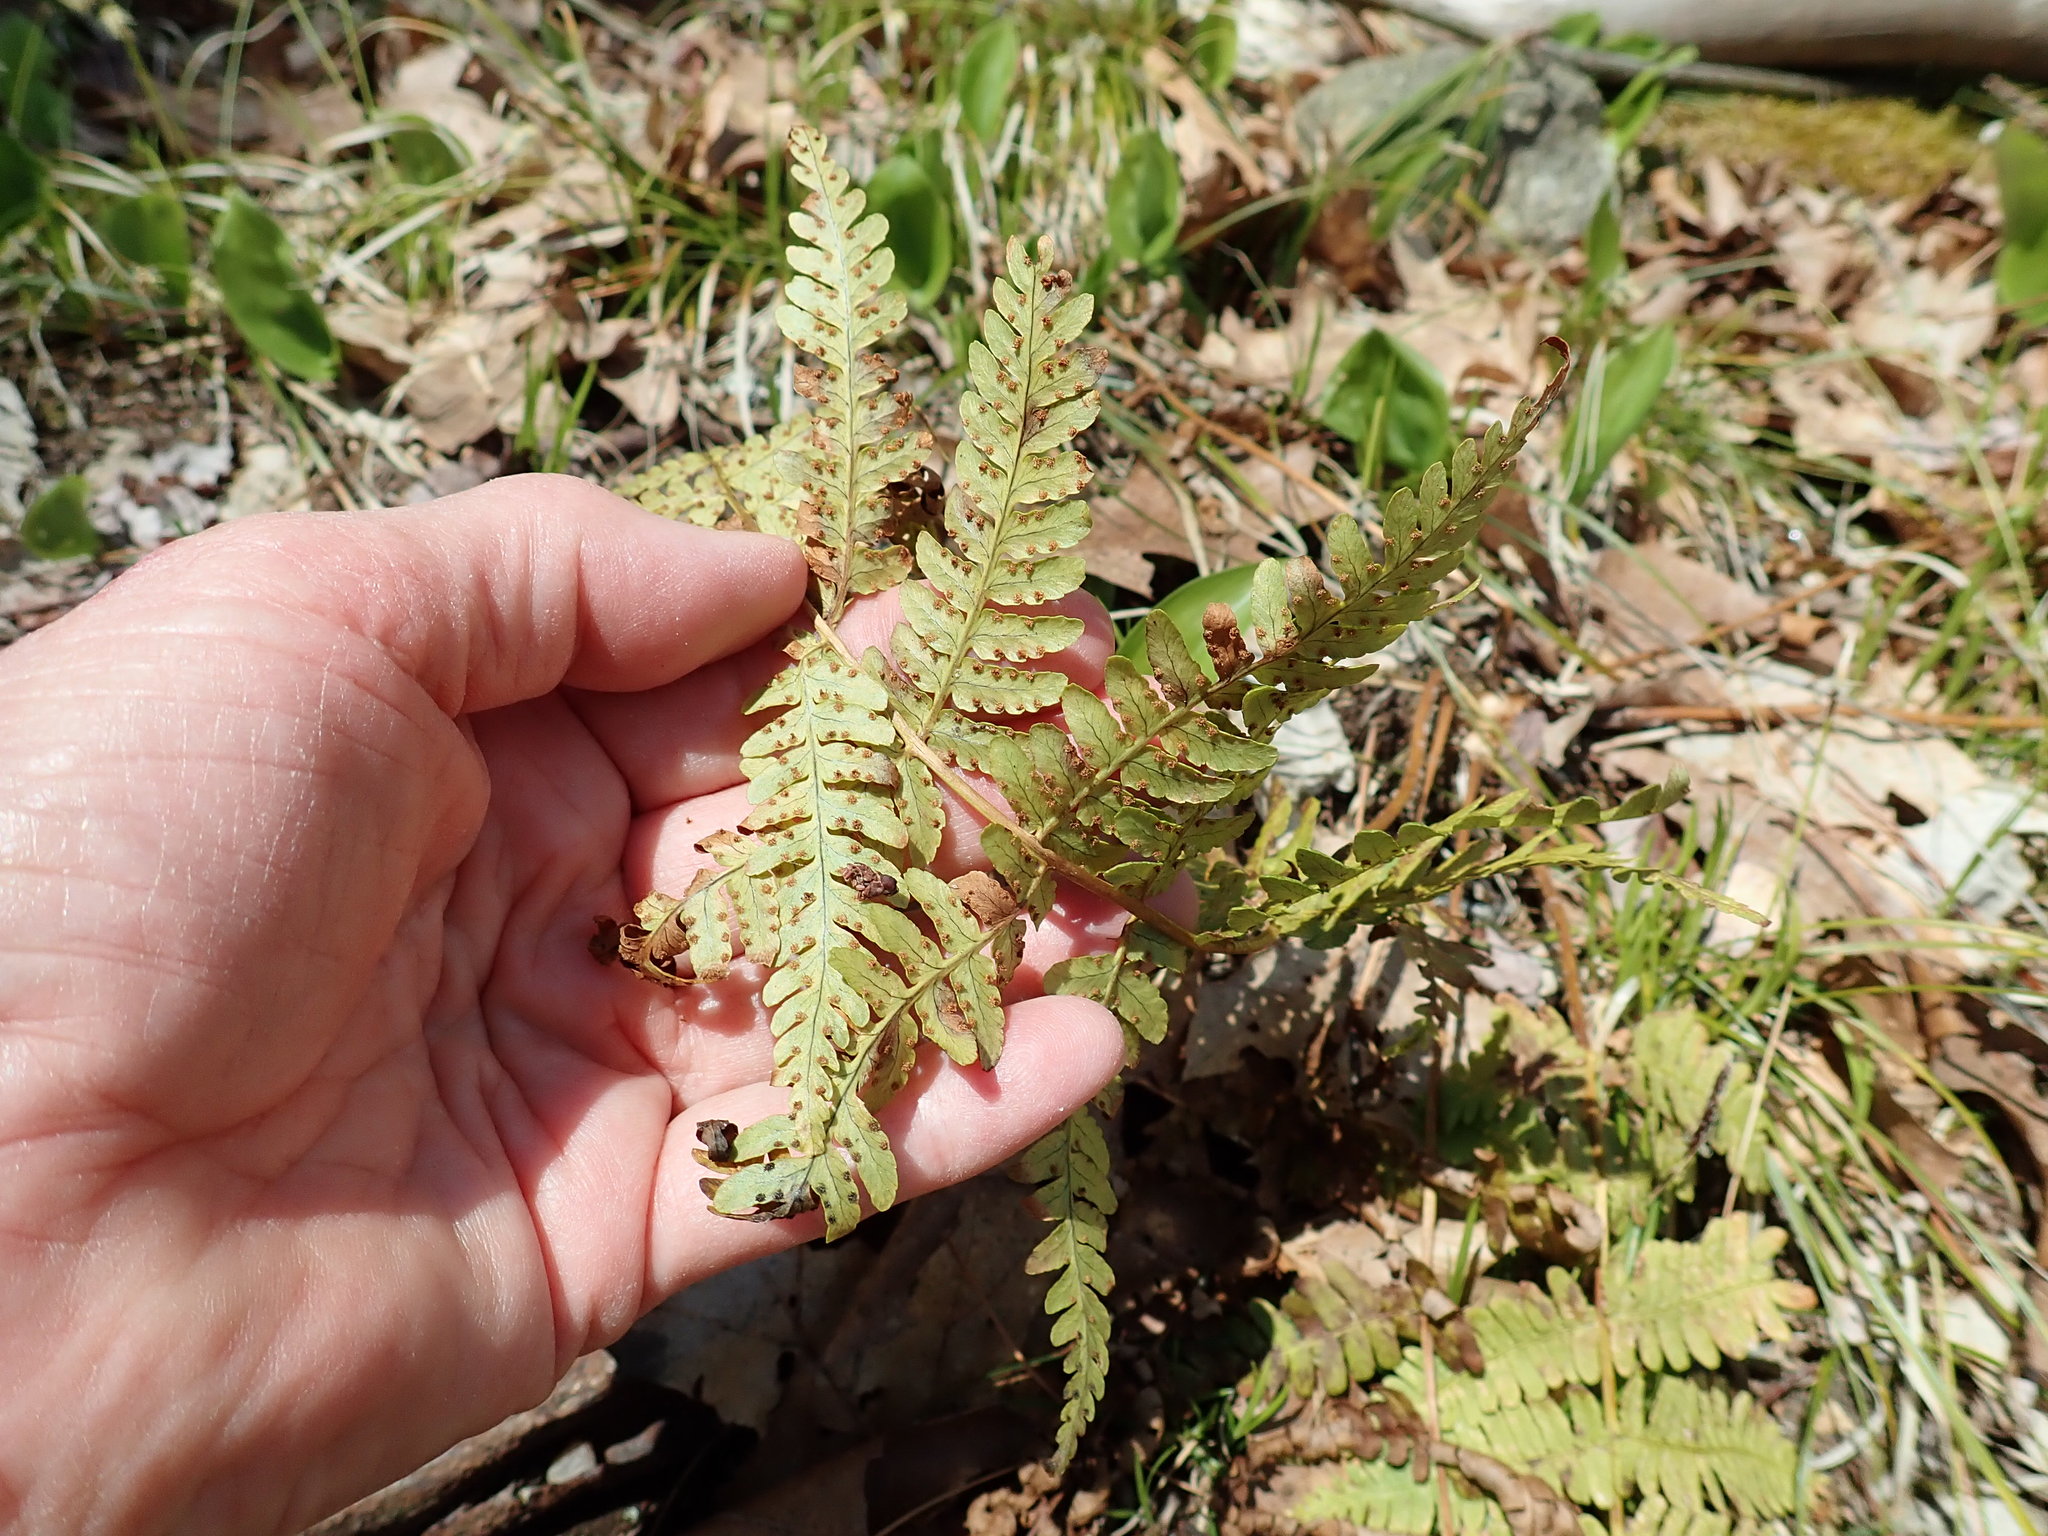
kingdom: Plantae
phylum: Tracheophyta
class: Polypodiopsida
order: Polypodiales
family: Dryopteridaceae
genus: Dryopteris
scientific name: Dryopteris marginalis
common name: Marginal wood fern
